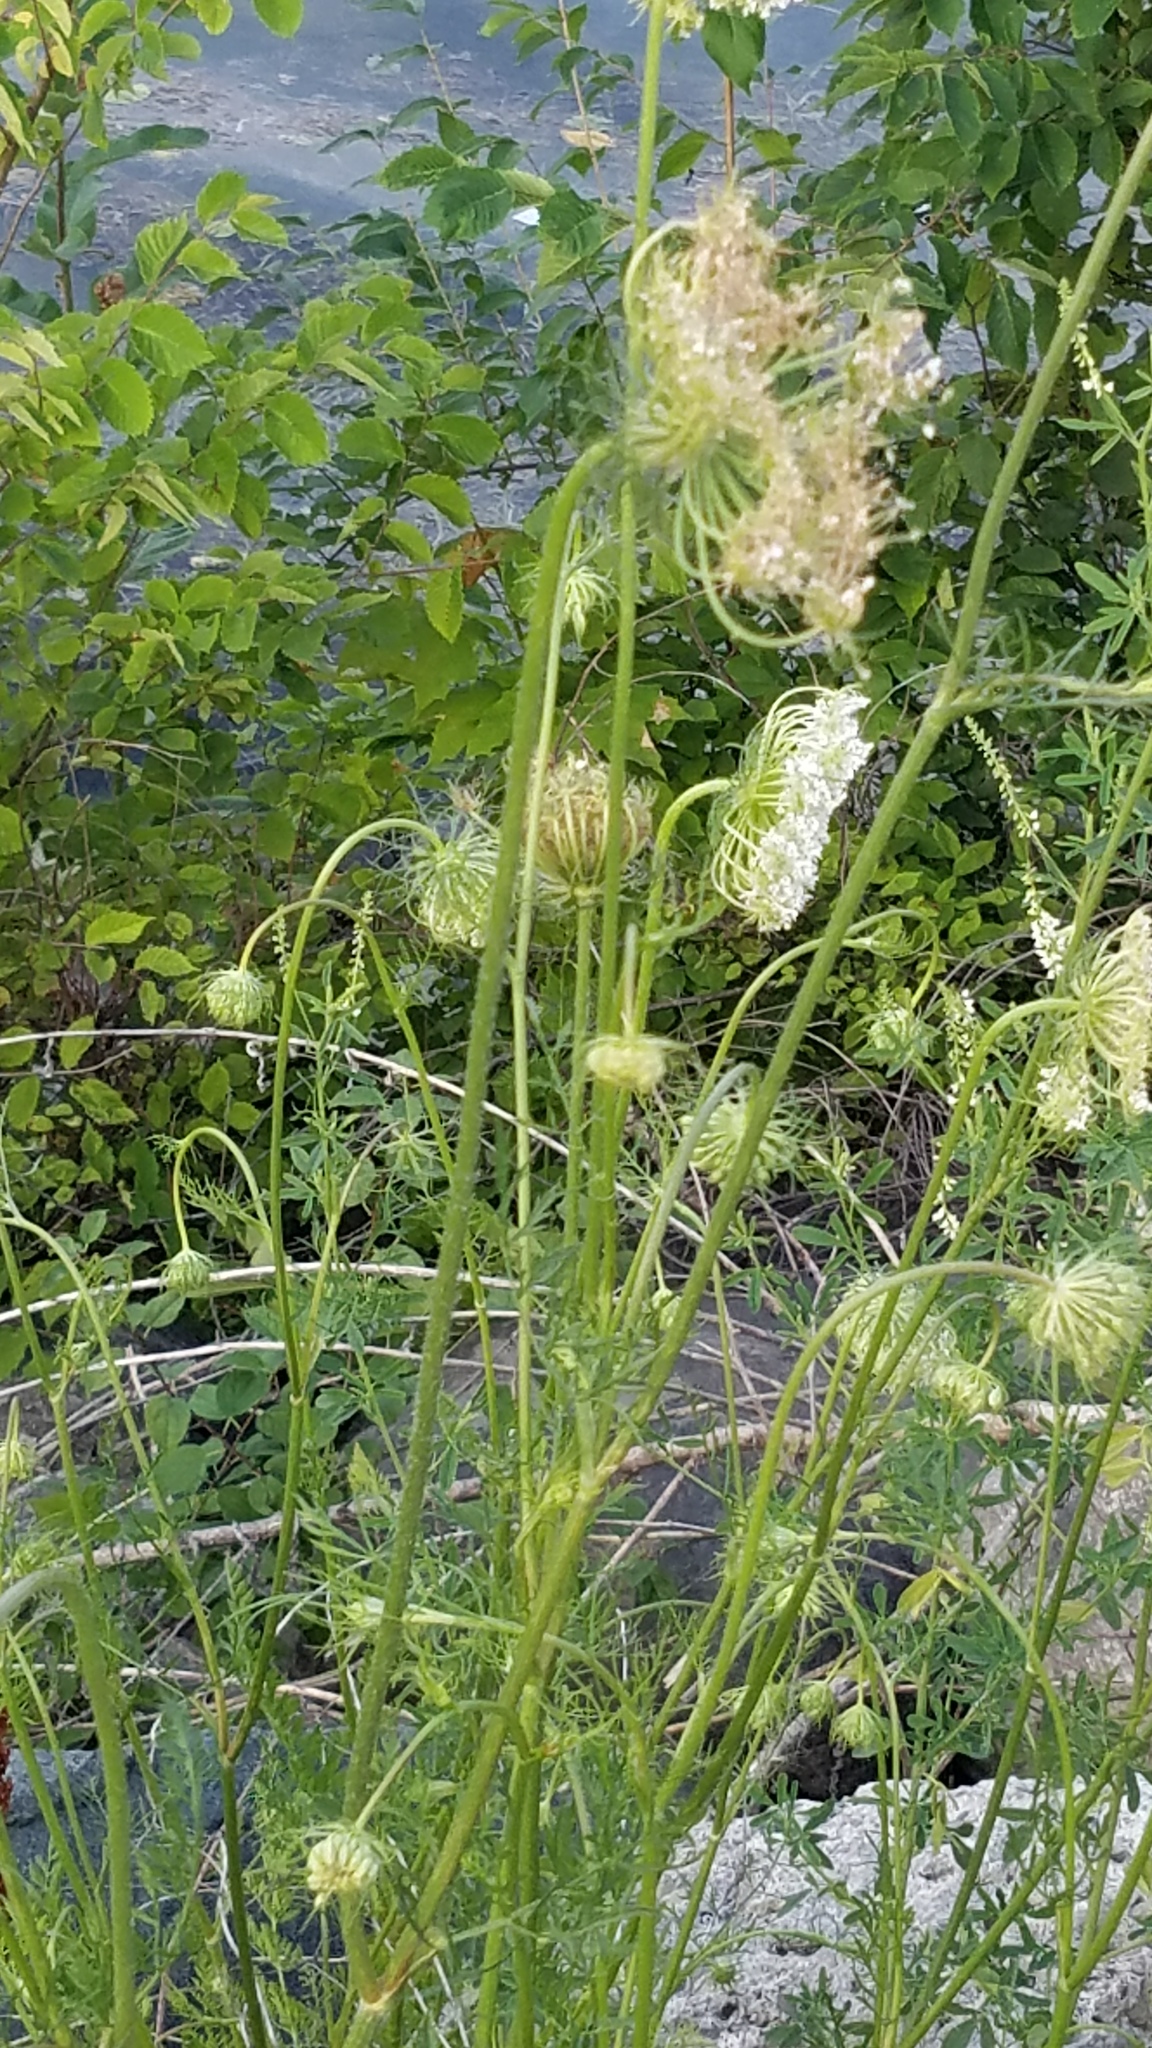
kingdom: Plantae
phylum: Tracheophyta
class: Magnoliopsida
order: Apiales
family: Apiaceae
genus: Daucus
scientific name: Daucus carota
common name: Wild carrot
